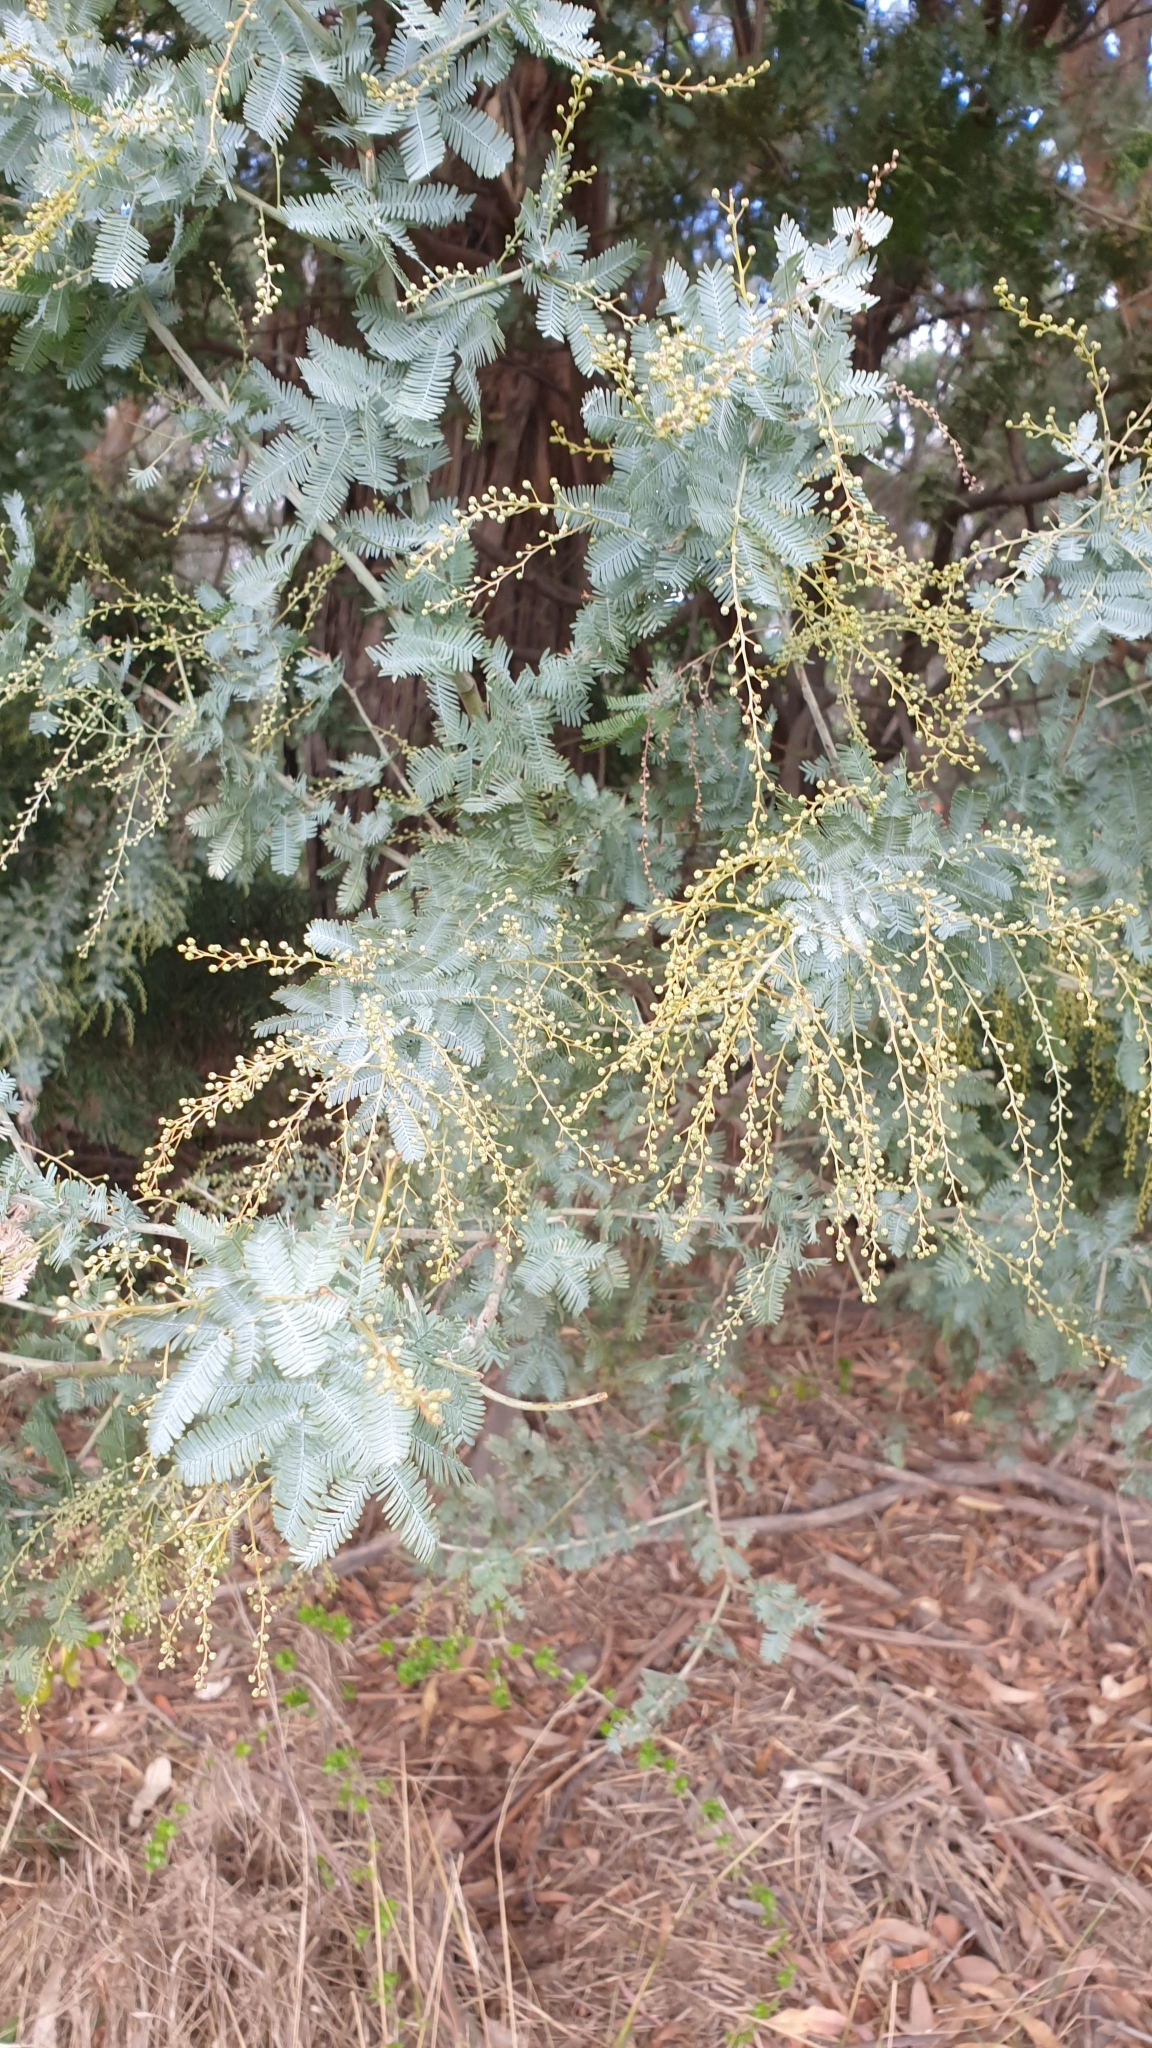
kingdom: Plantae
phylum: Tracheophyta
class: Magnoliopsida
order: Fabales
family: Fabaceae
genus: Acacia
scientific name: Acacia baileyana
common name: Cootamundra wattle
